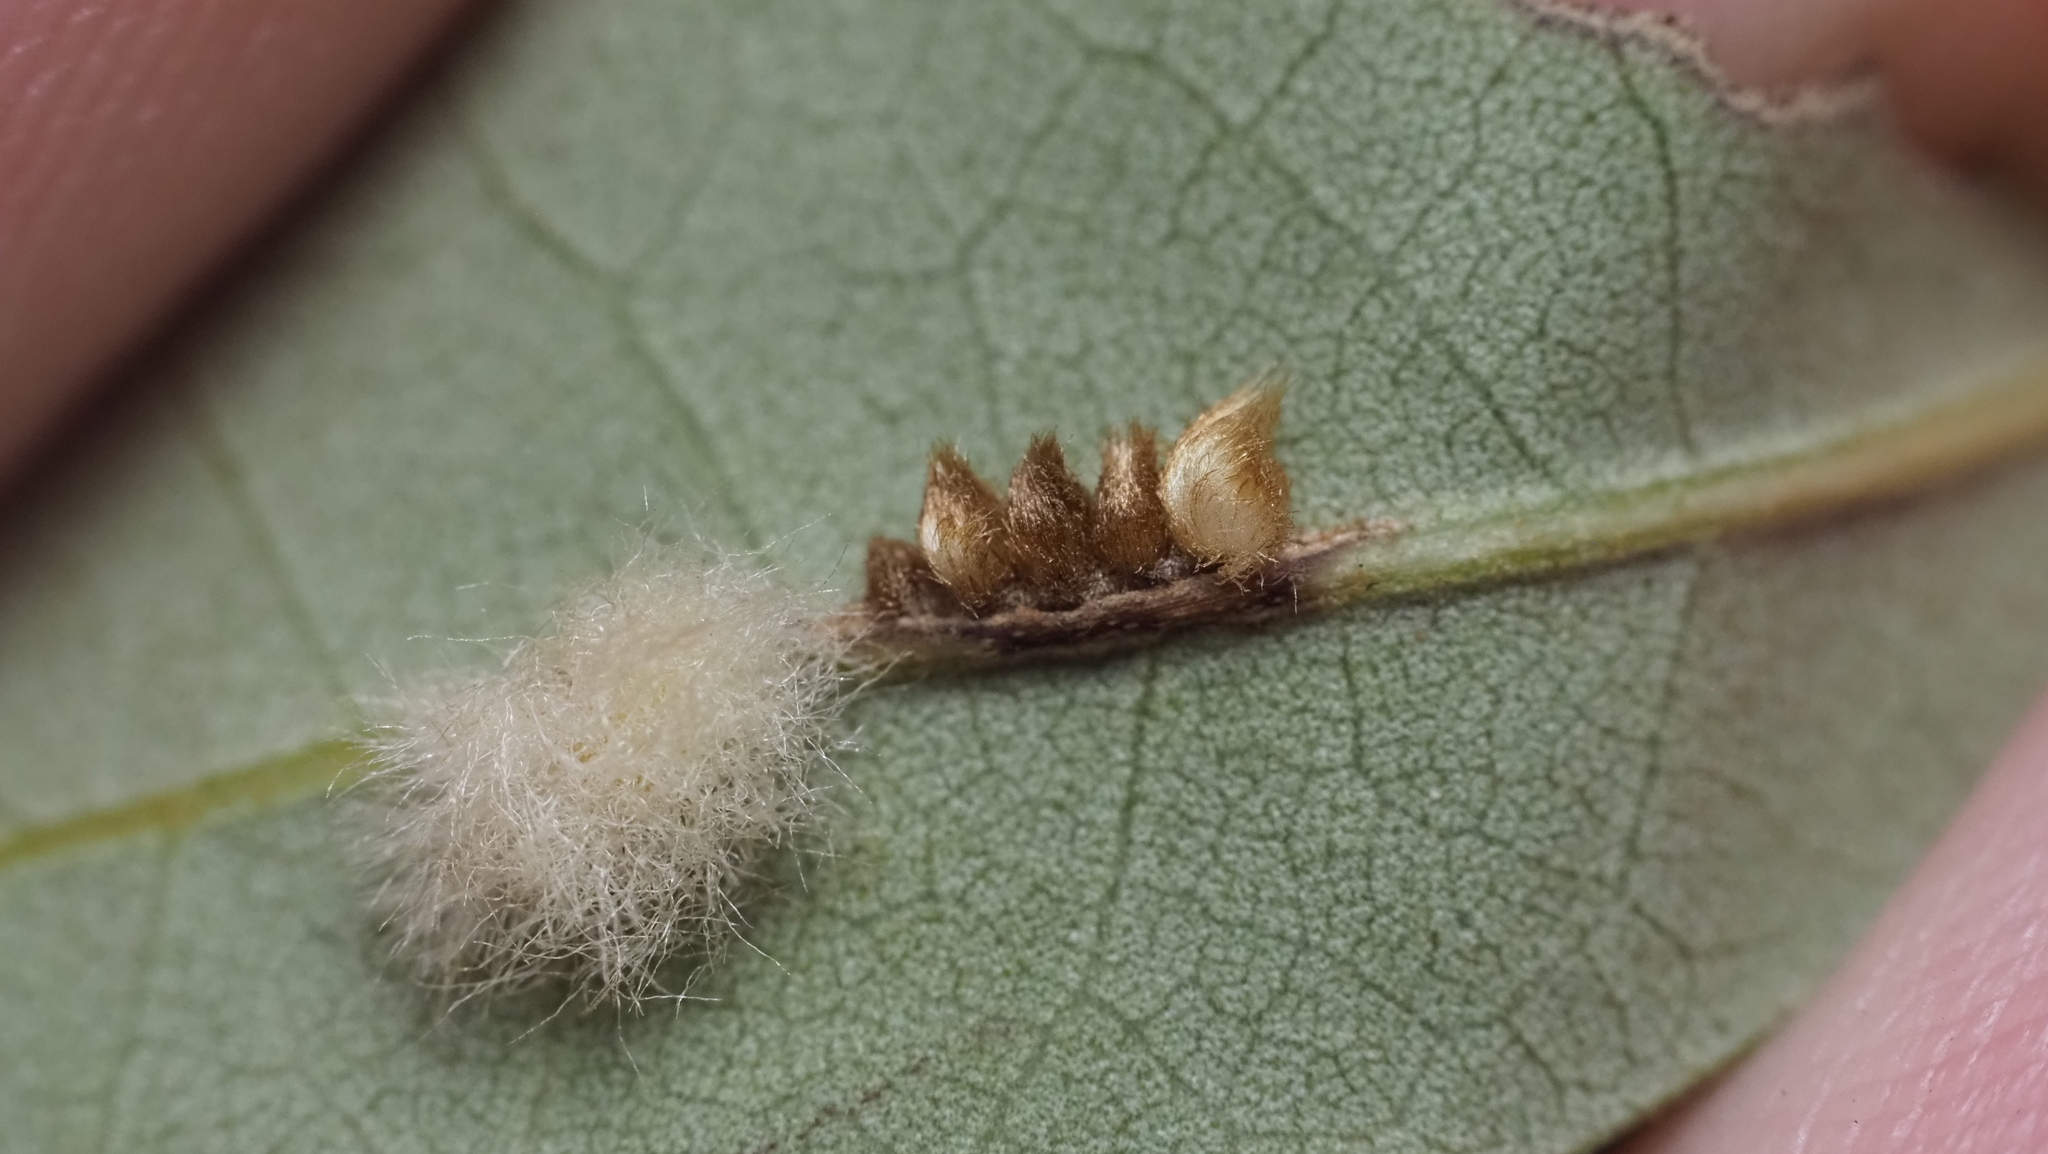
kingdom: Animalia
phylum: Arthropoda
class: Insecta
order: Hymenoptera
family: Cynipidae
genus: Andricus
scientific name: Andricus Druon quercuslanigerum
